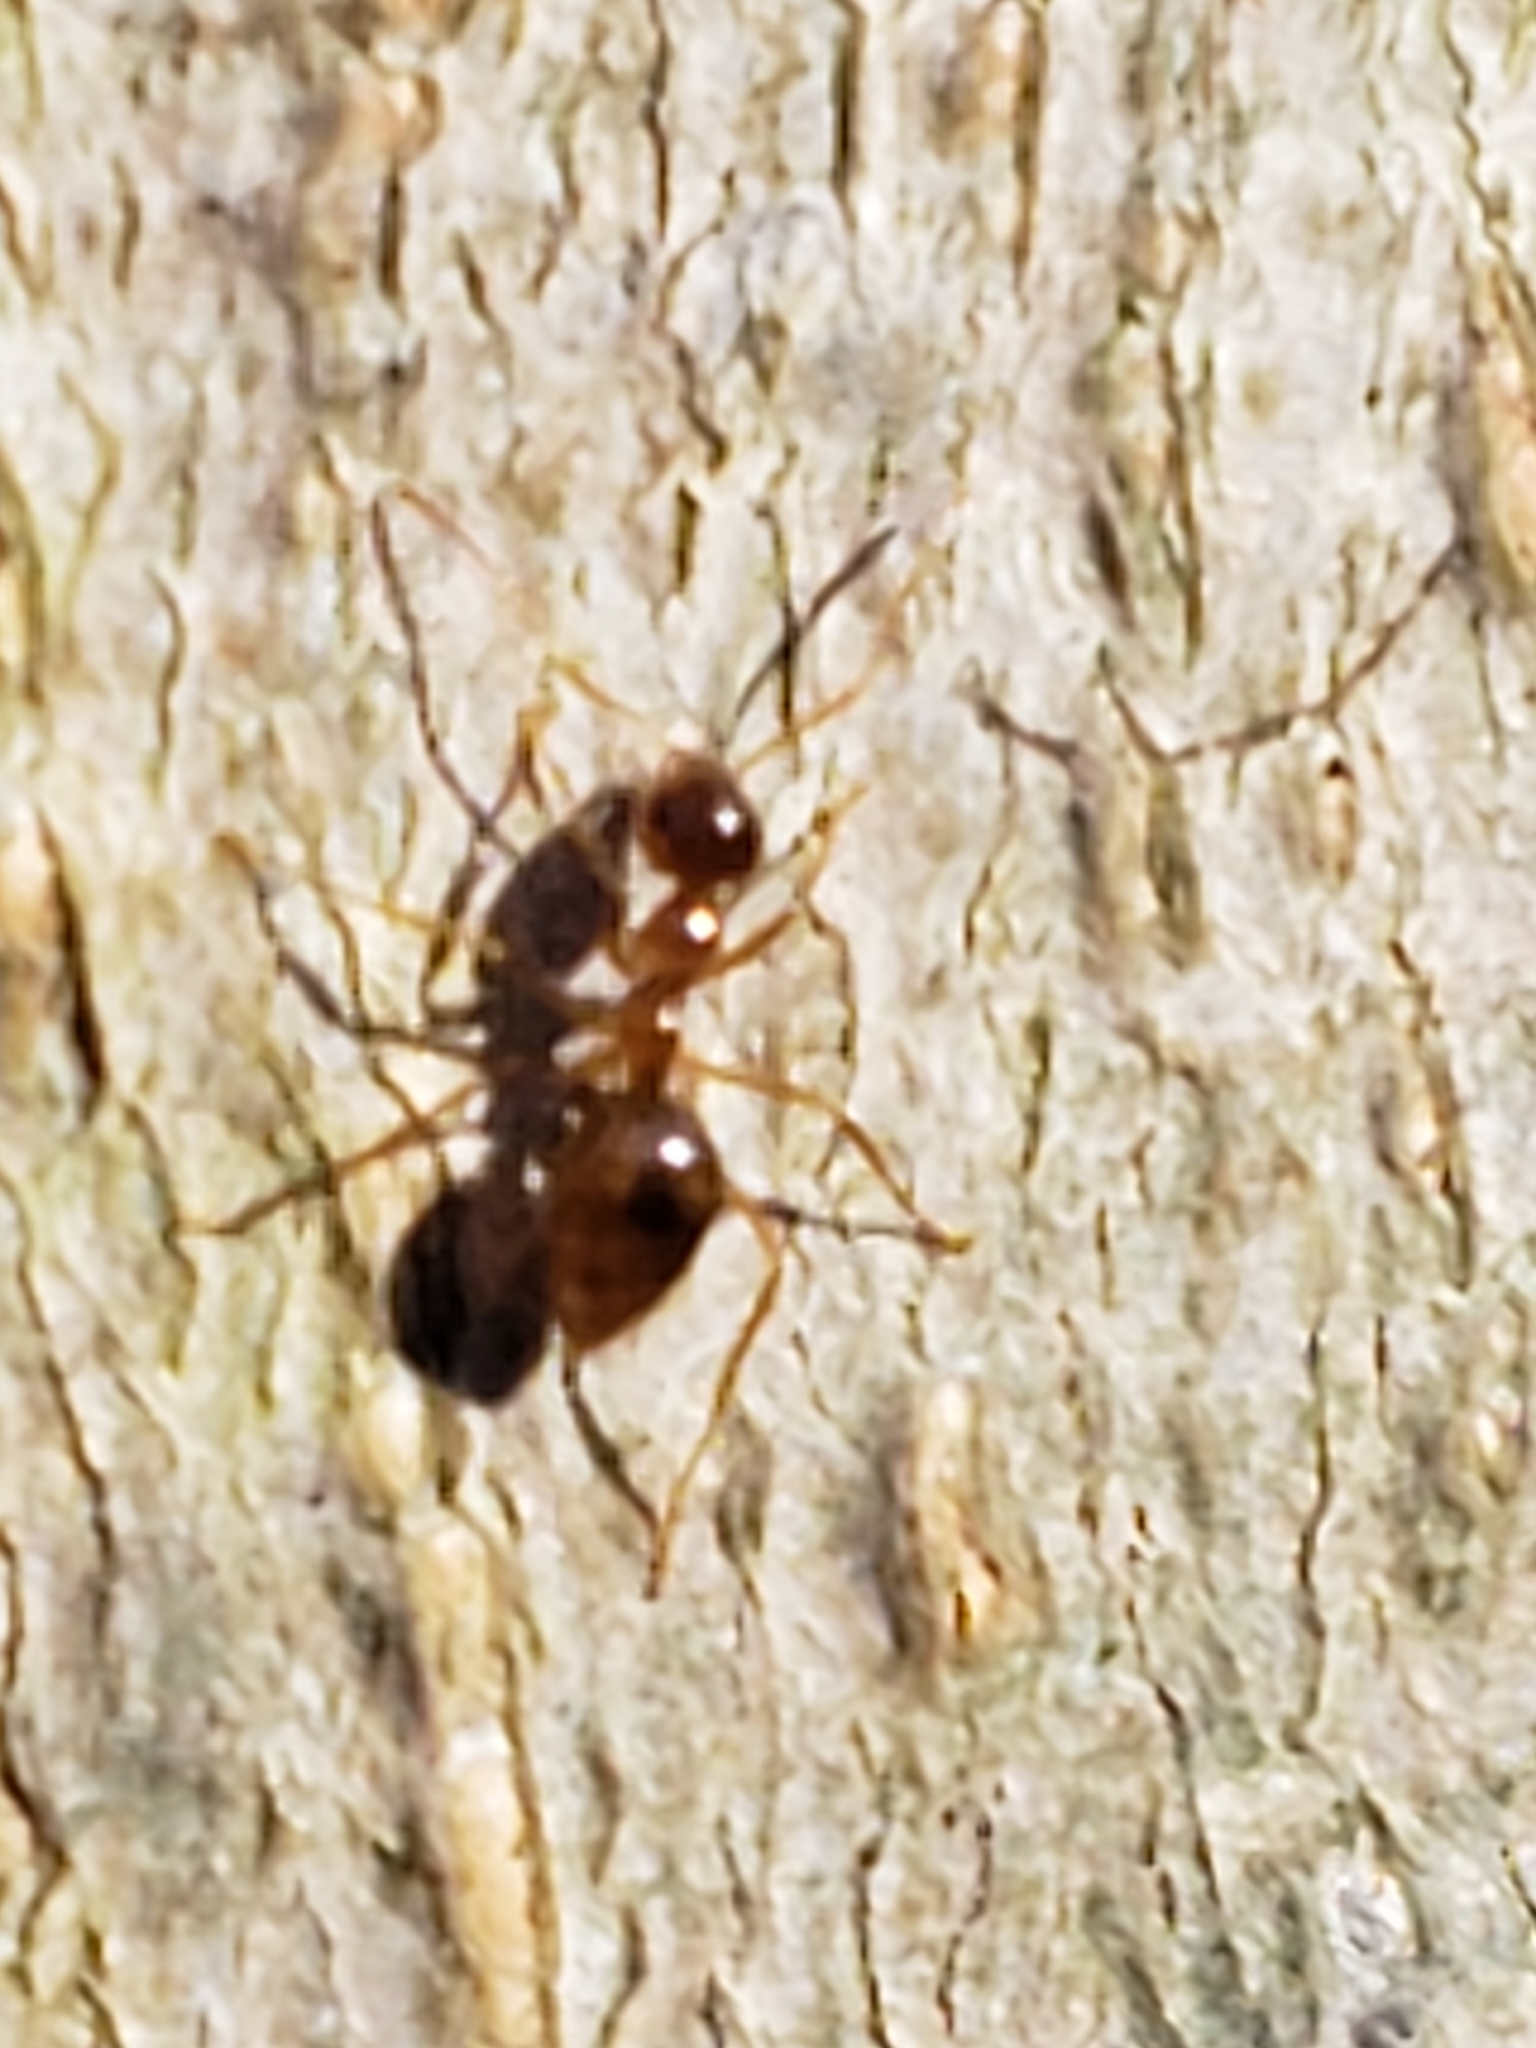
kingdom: Animalia
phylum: Arthropoda
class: Insecta
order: Hymenoptera
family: Formicidae
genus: Prenolepis
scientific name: Prenolepis imparis
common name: Small honey ant
